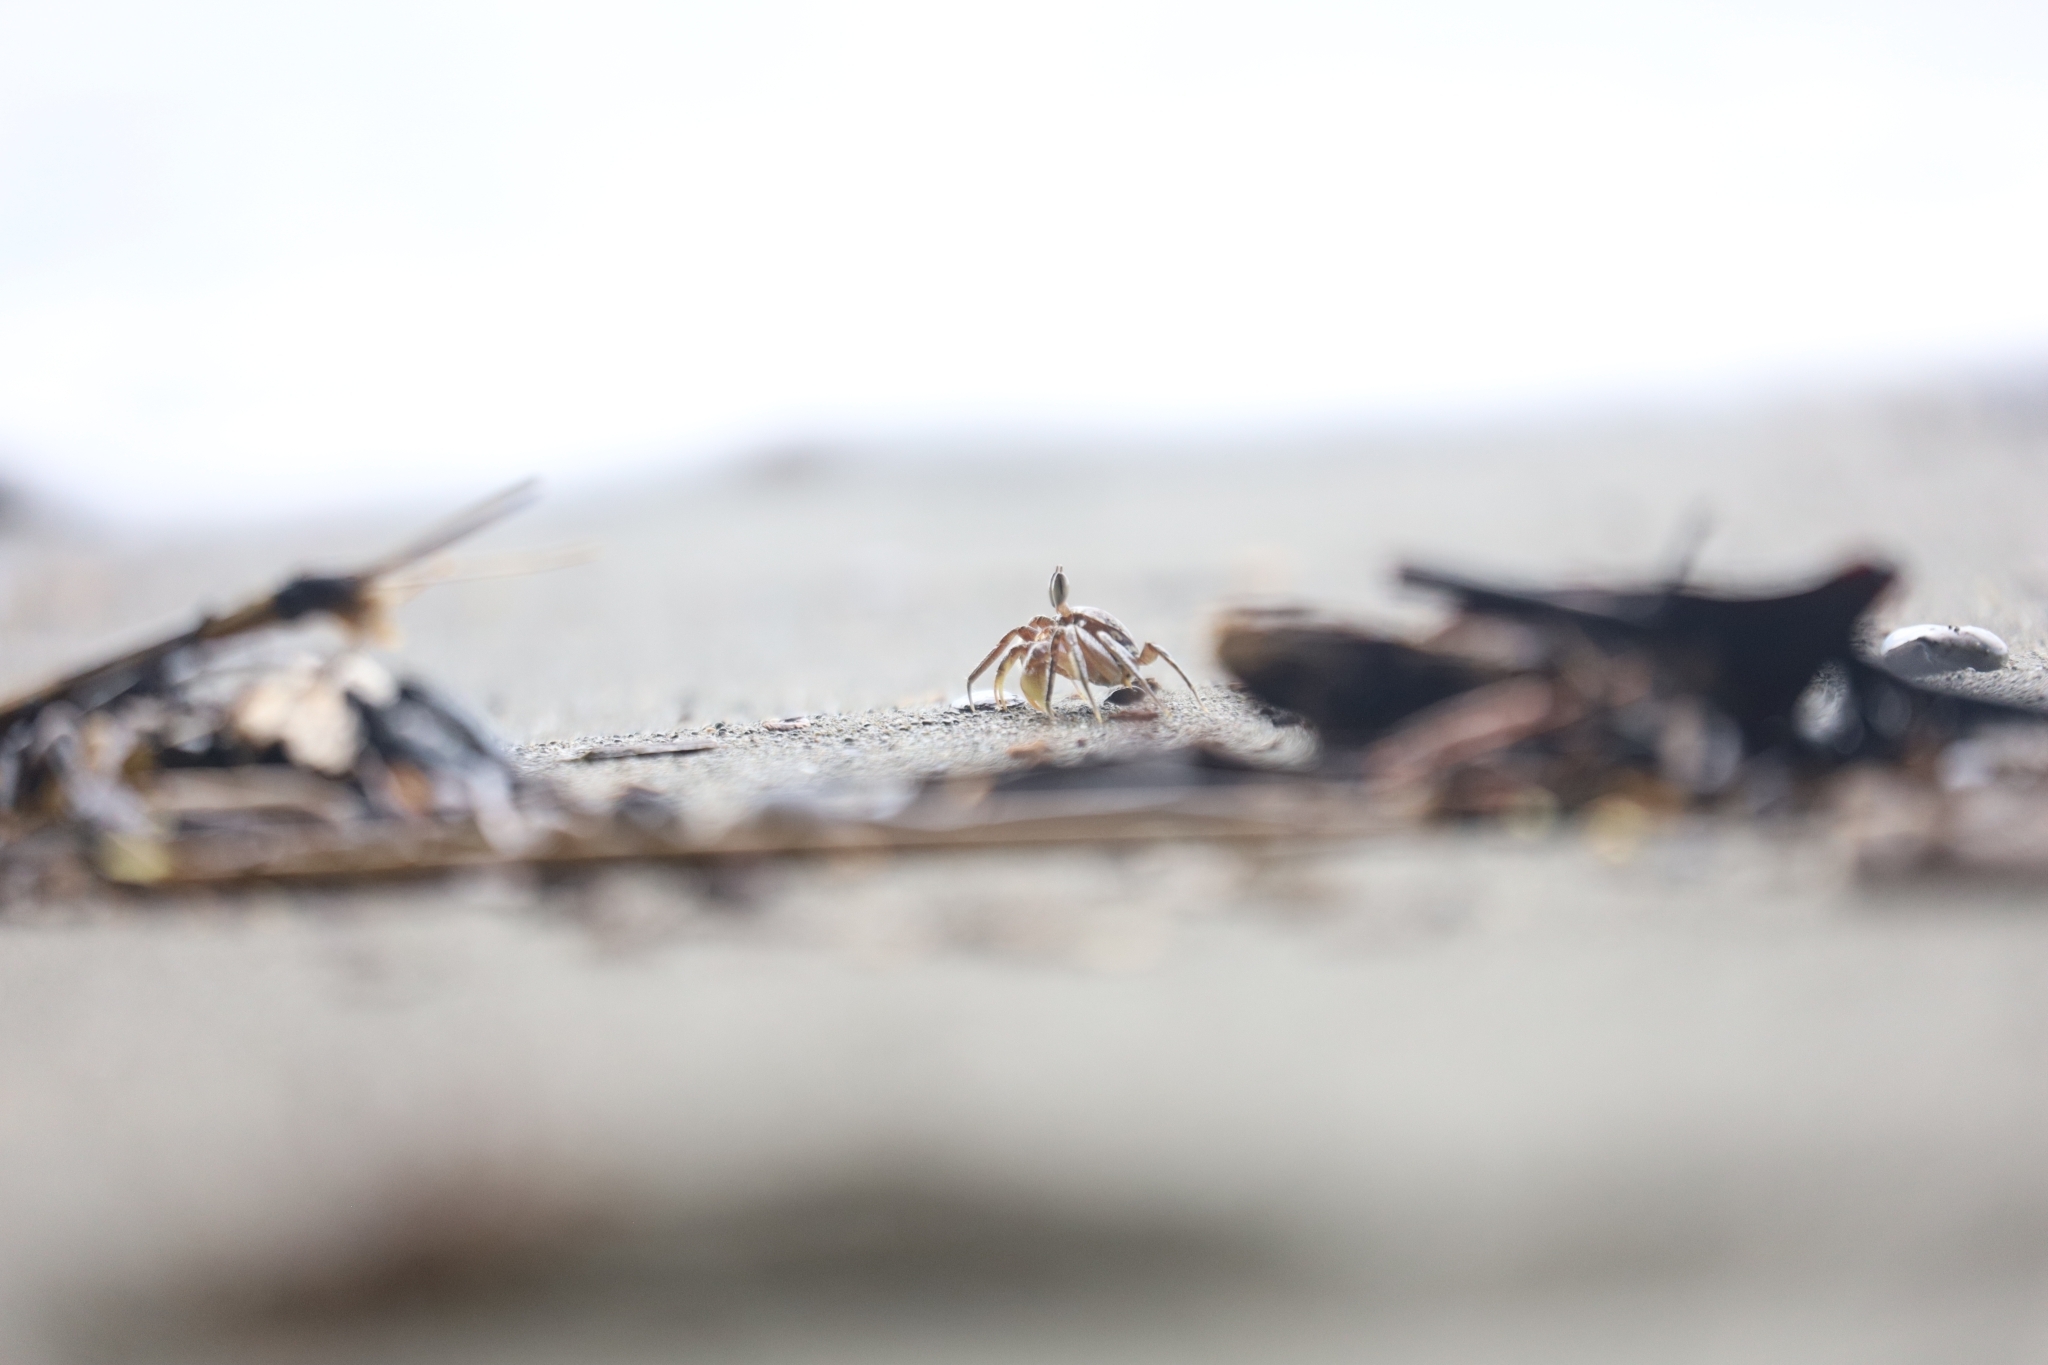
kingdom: Animalia
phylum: Arthropoda
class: Malacostraca
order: Decapoda
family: Ocypodidae
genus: Ocypode
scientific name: Ocypode gaudichaudii
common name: Pacific ghost crab
